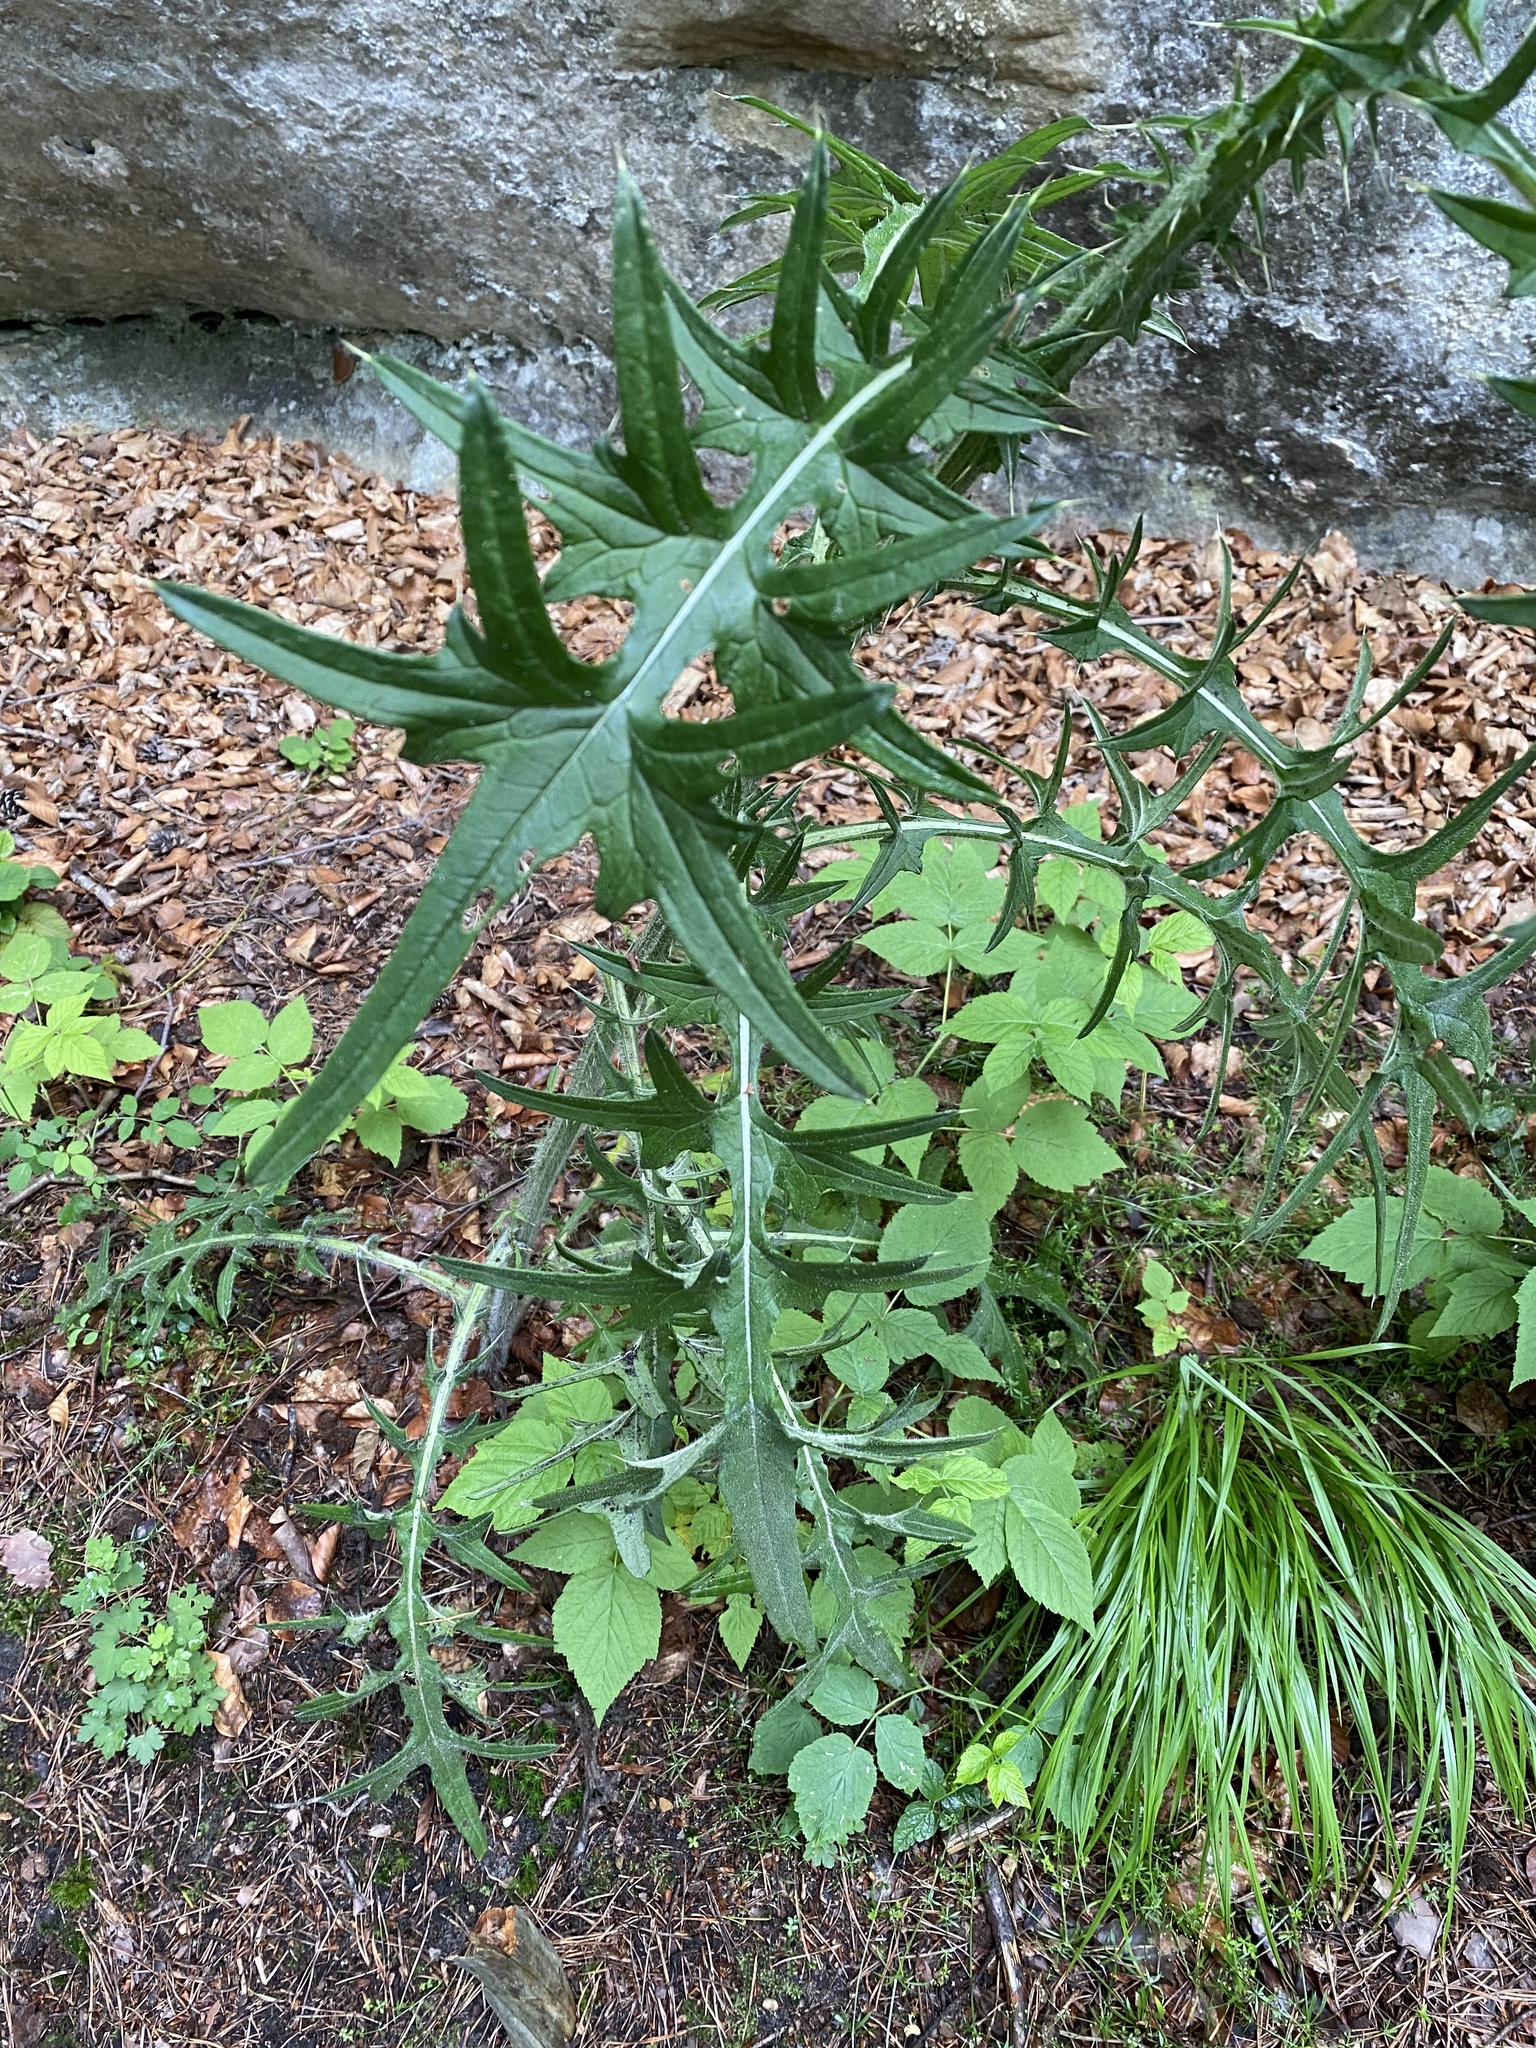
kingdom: Plantae
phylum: Tracheophyta
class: Magnoliopsida
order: Asterales
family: Asteraceae
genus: Cirsium
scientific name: Cirsium vulgare
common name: Bull thistle
